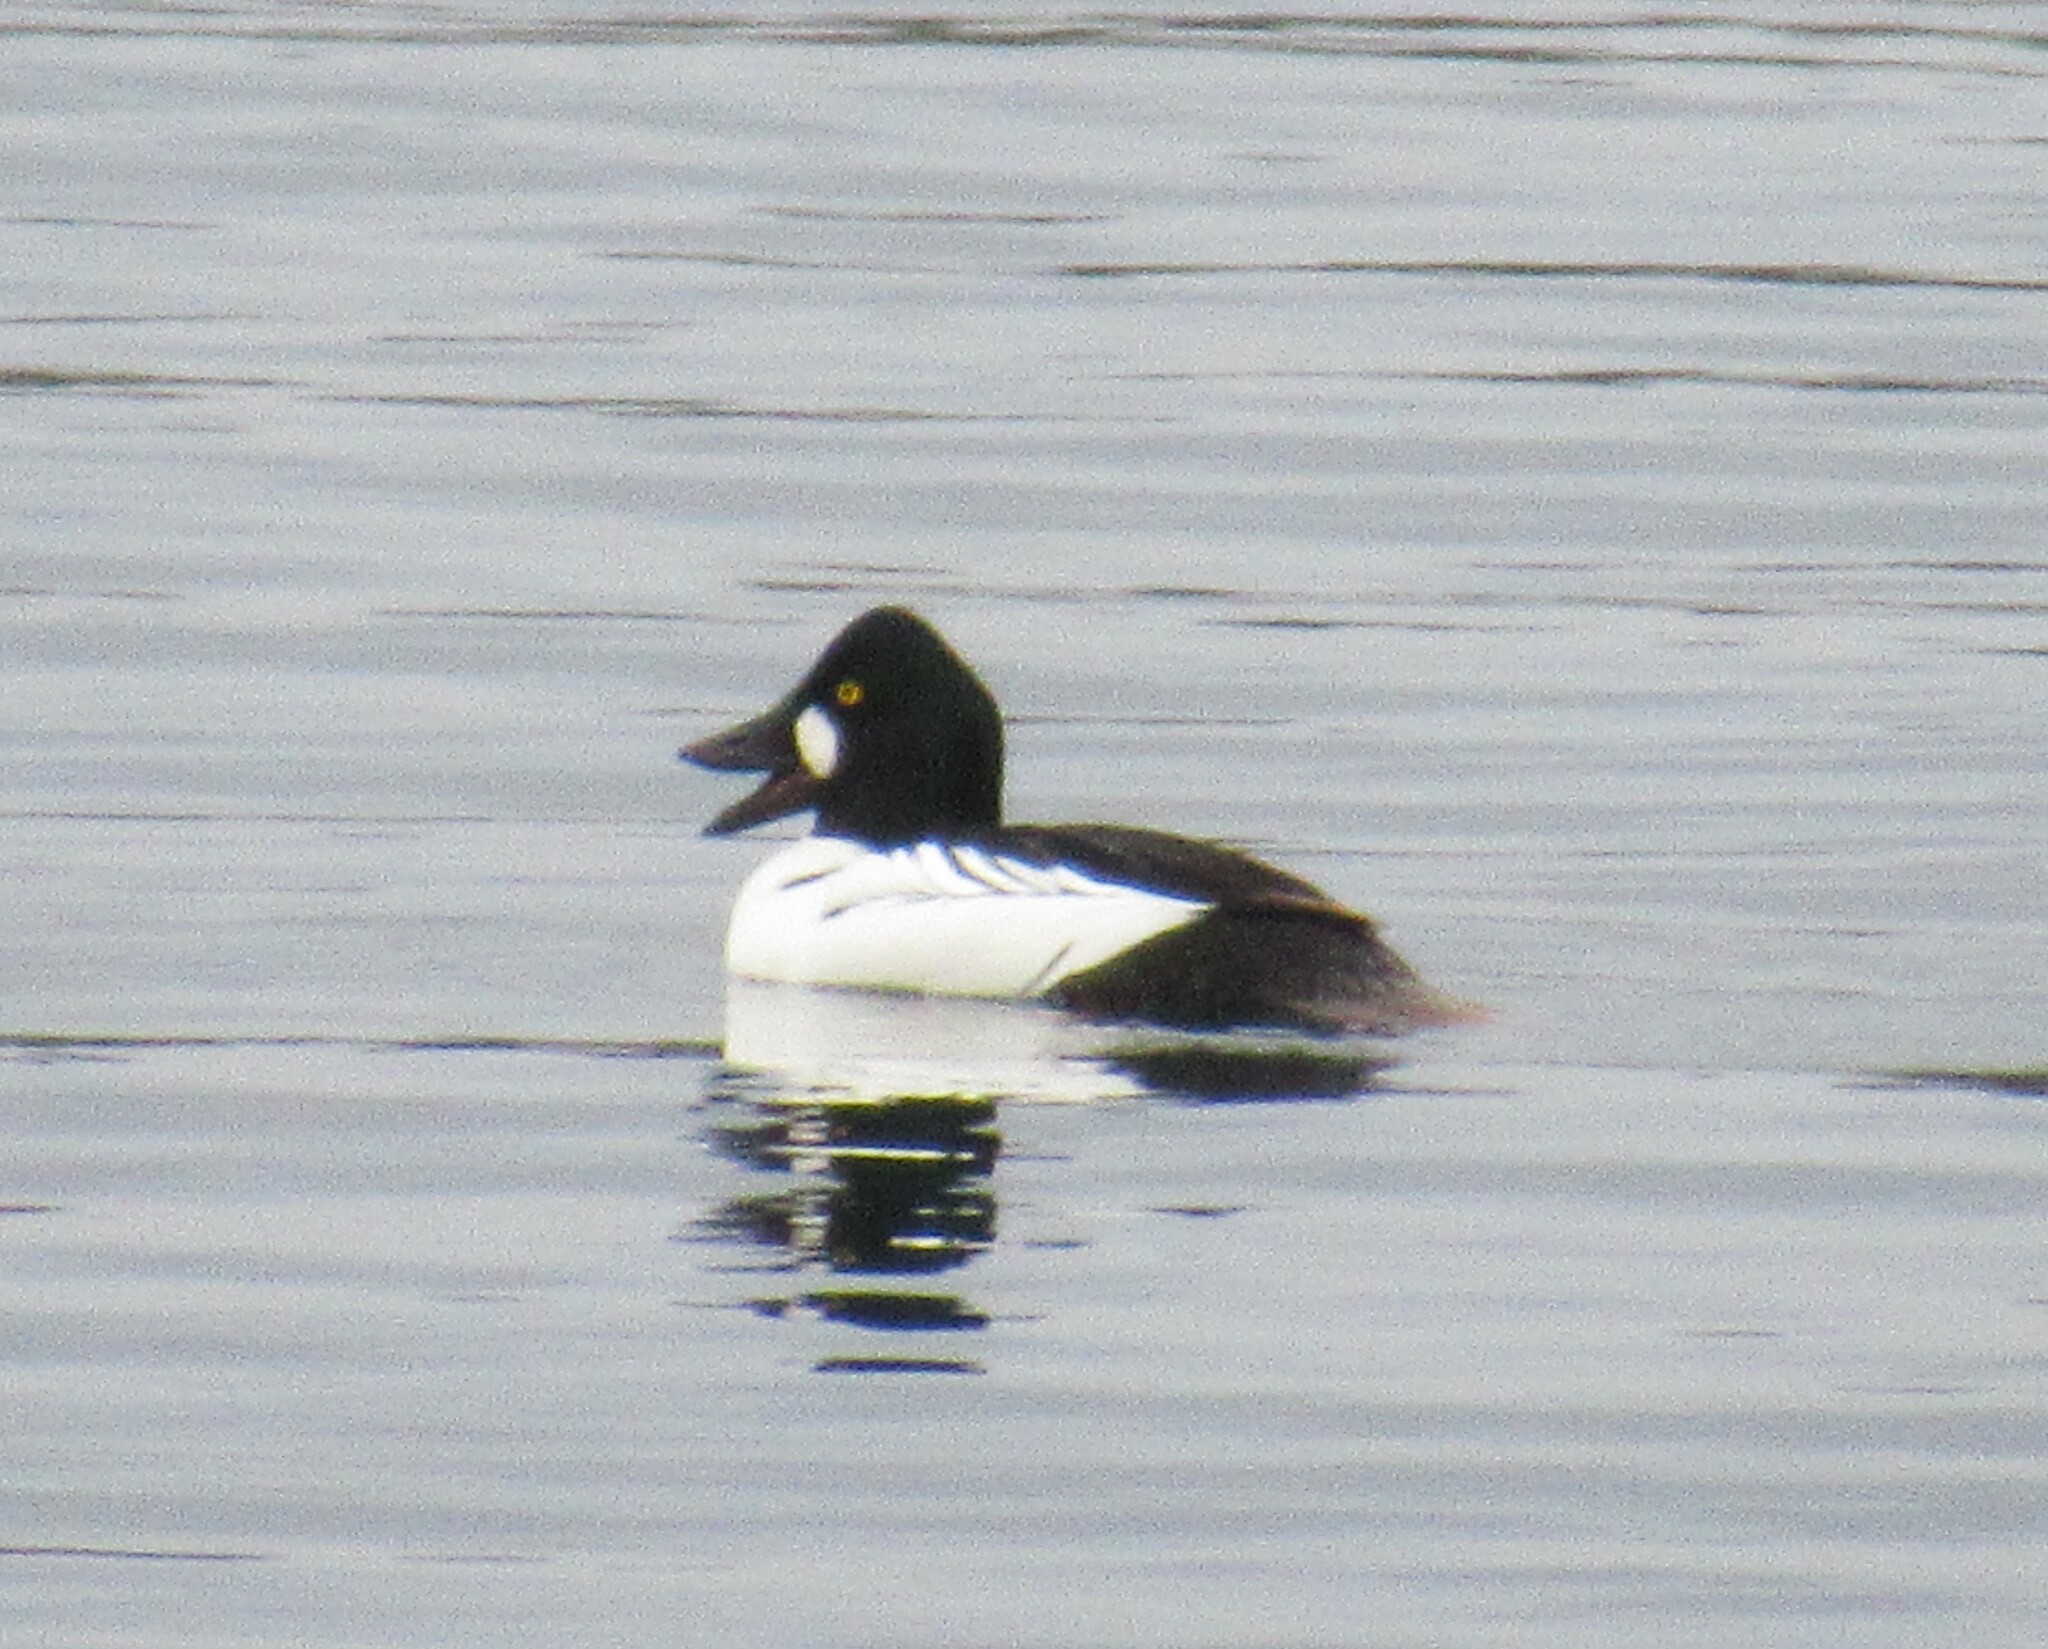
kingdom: Animalia
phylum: Chordata
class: Aves
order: Anseriformes
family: Anatidae
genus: Bucephala
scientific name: Bucephala clangula
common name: Common goldeneye
